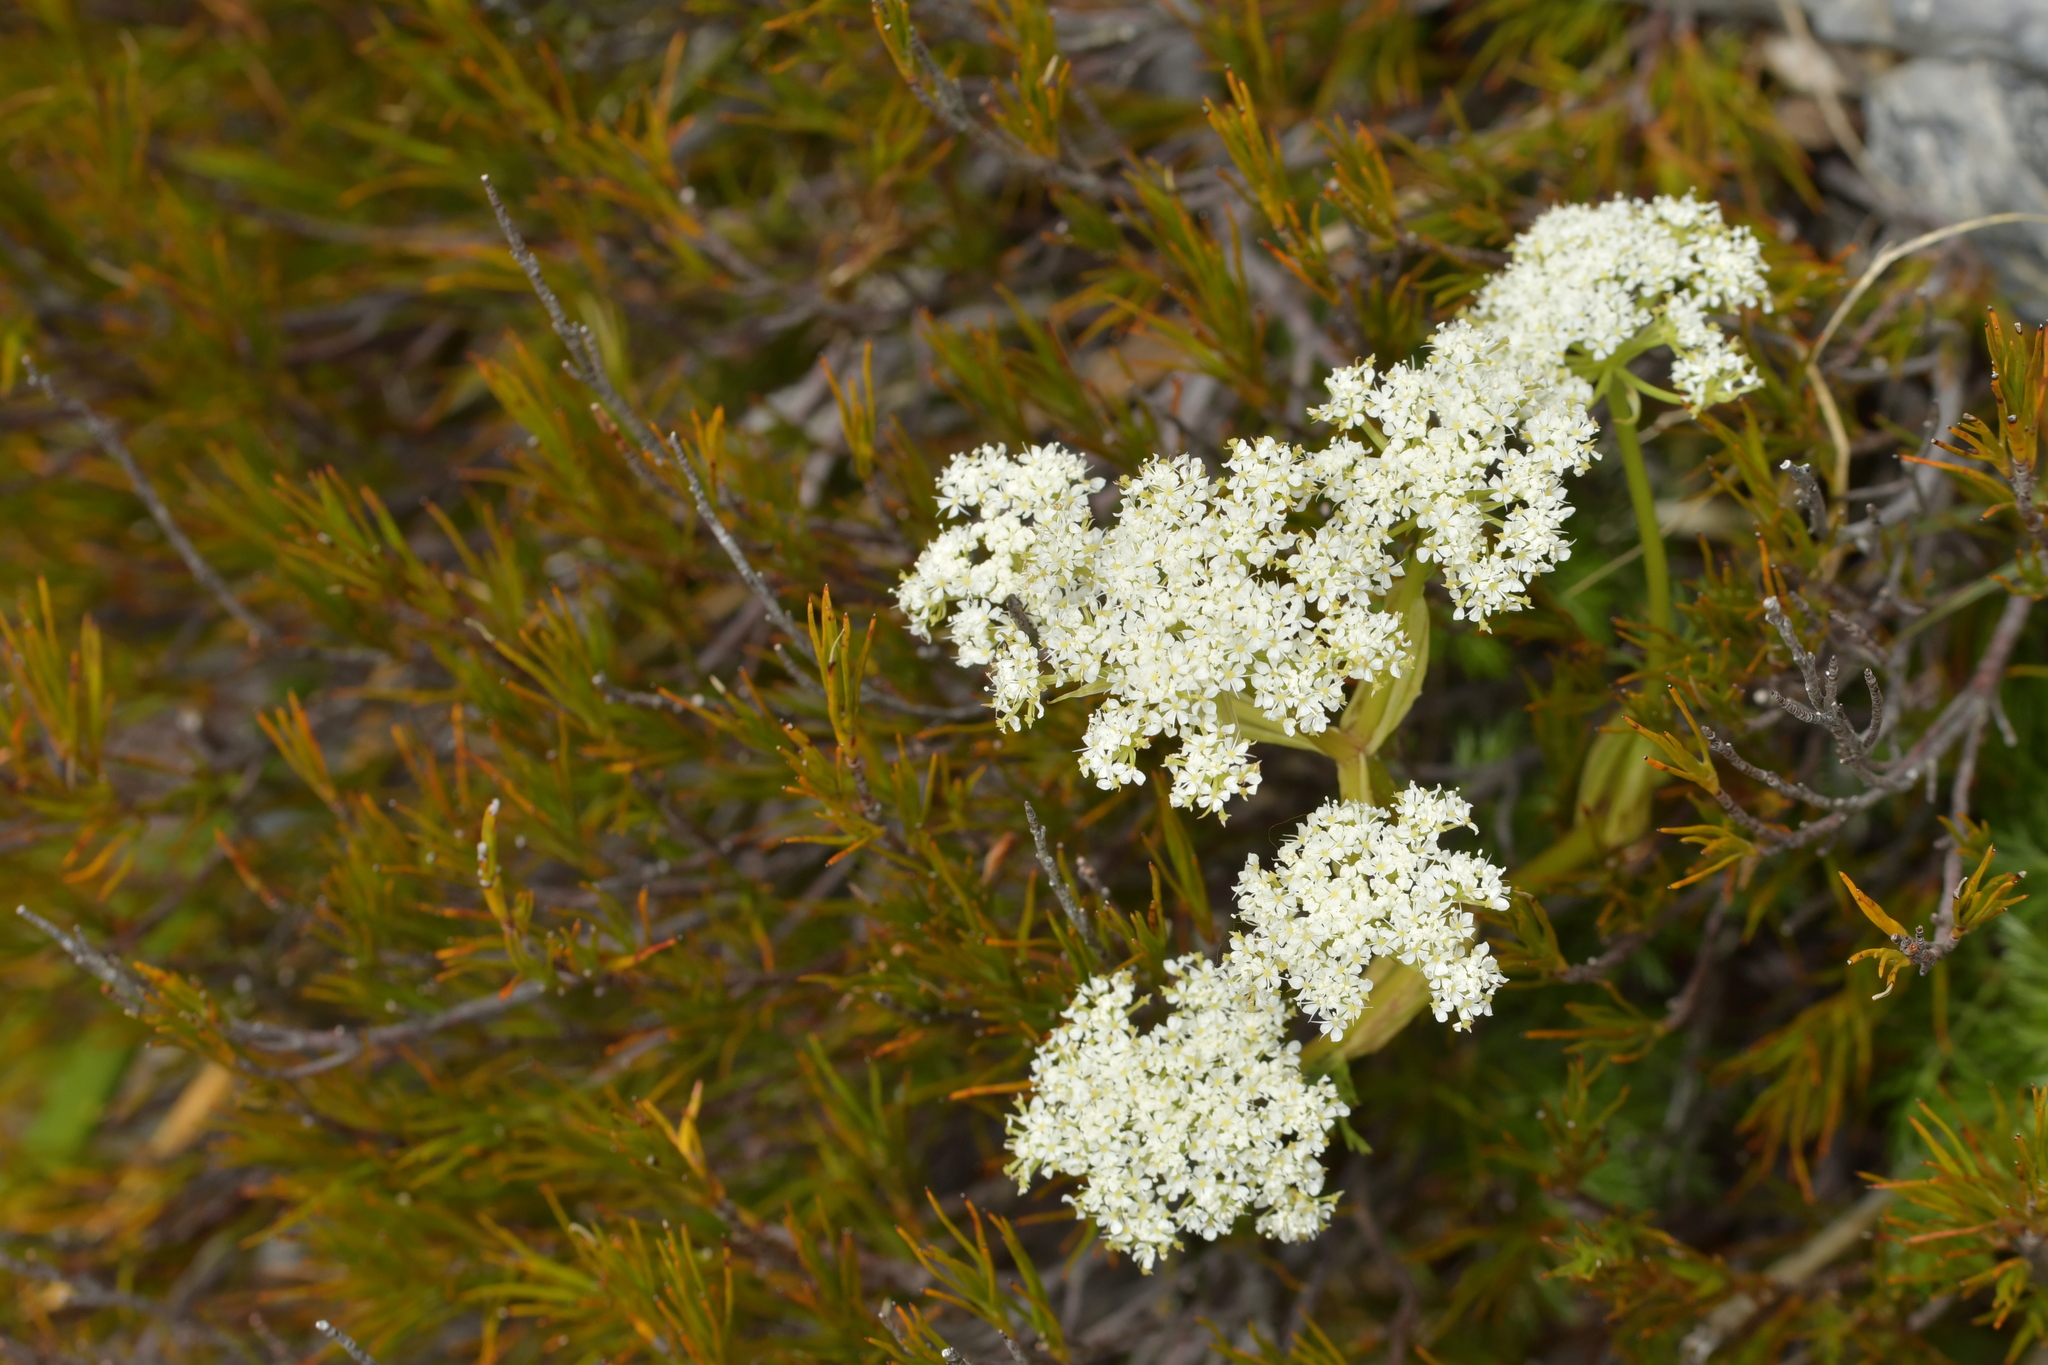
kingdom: Plantae
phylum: Tracheophyta
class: Magnoliopsida
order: Apiales
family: Apiaceae
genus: Anisotome
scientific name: Anisotome aromatica
